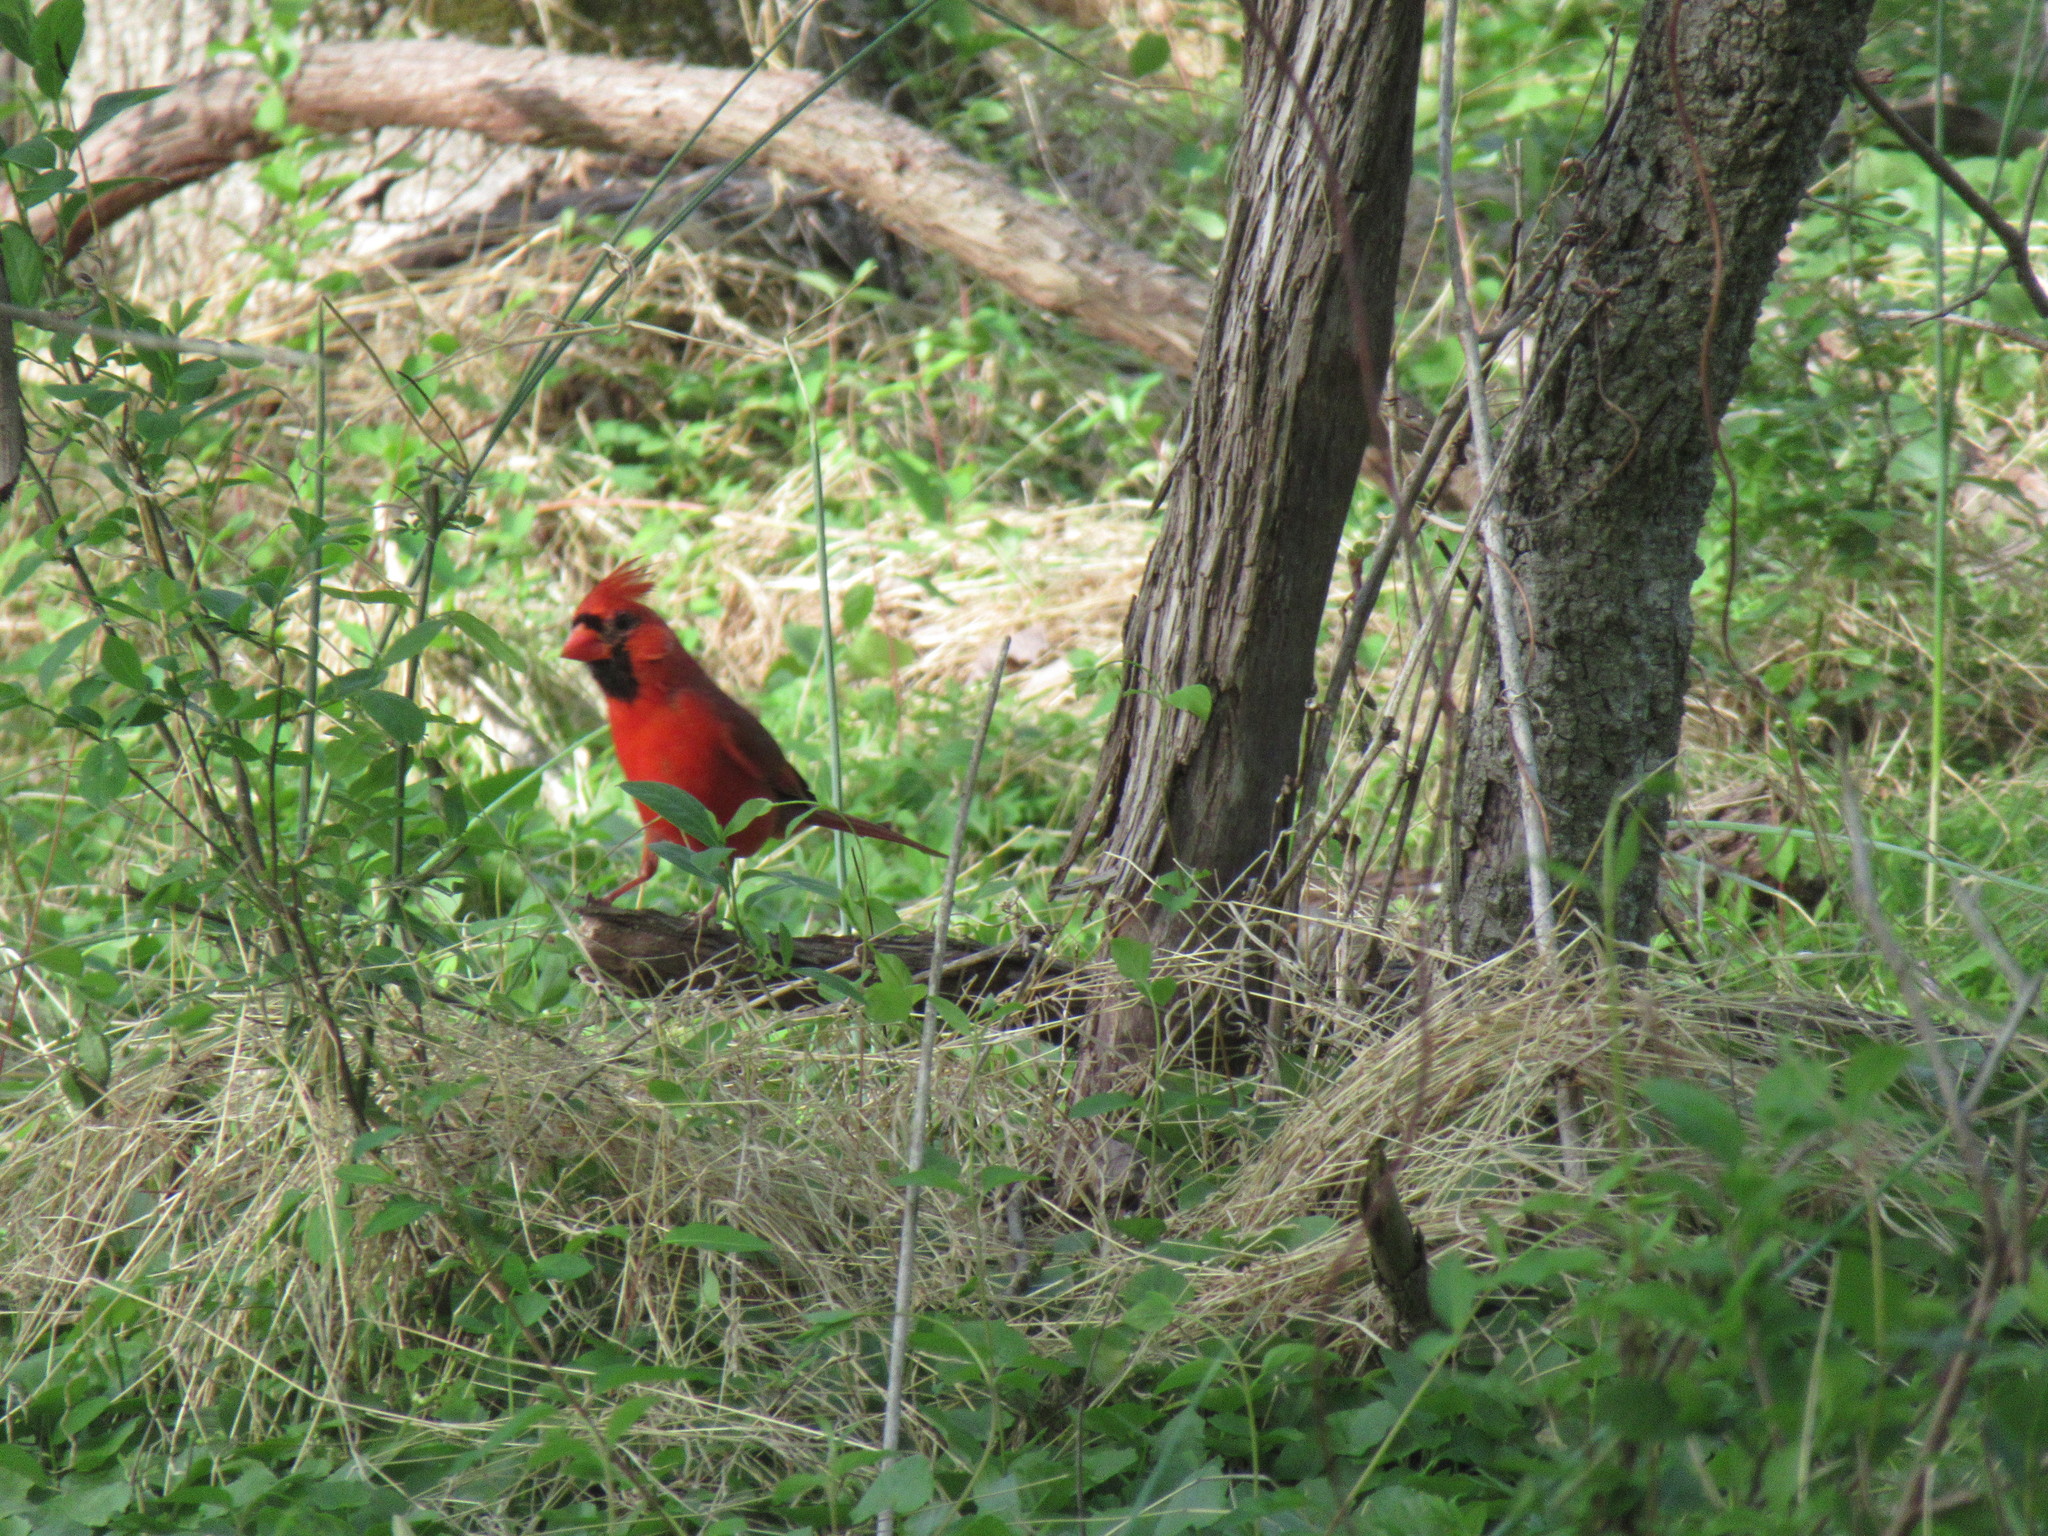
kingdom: Animalia
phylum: Chordata
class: Aves
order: Passeriformes
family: Cardinalidae
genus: Cardinalis
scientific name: Cardinalis cardinalis
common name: Northern cardinal
